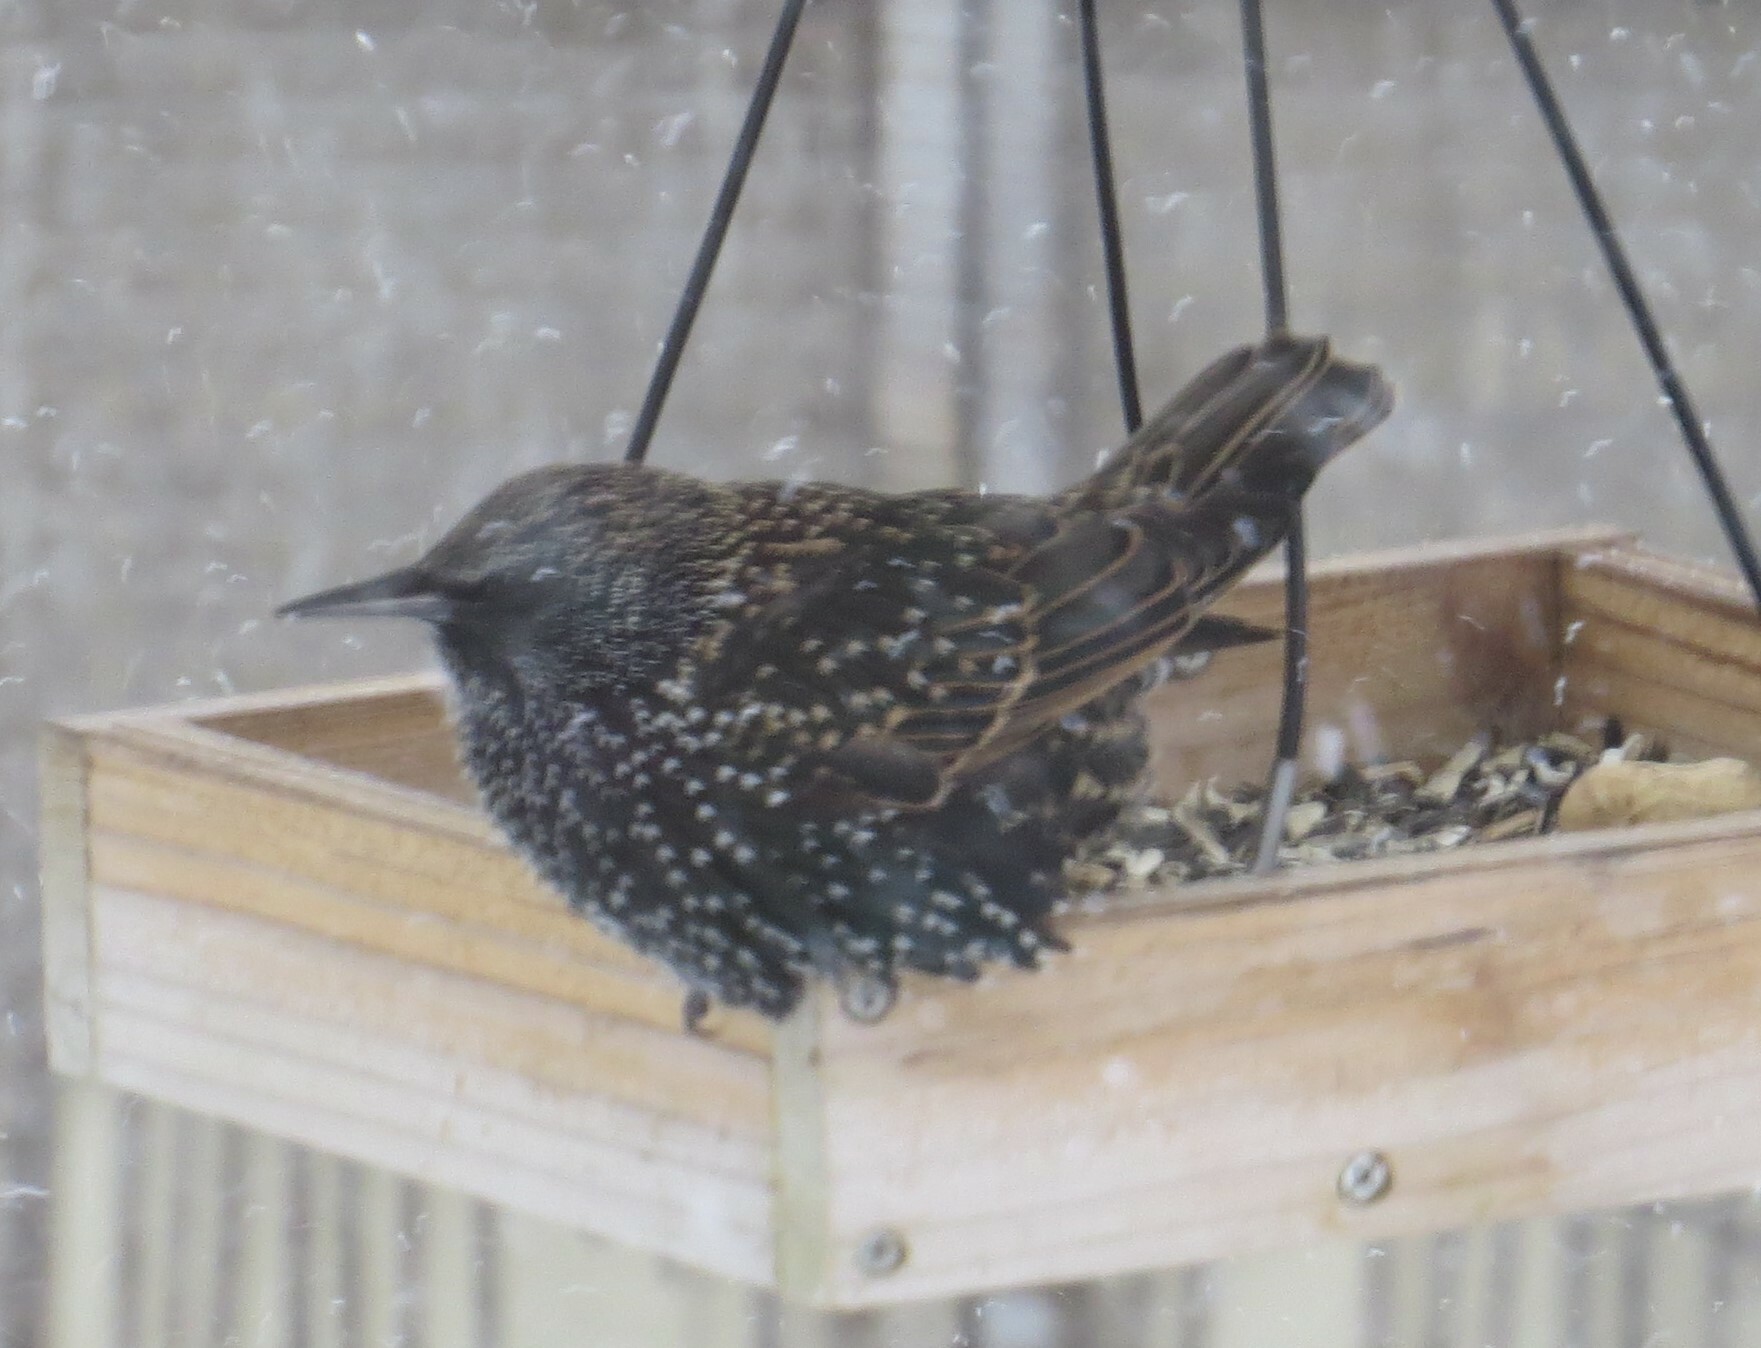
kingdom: Animalia
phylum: Chordata
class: Aves
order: Passeriformes
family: Sturnidae
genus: Sturnus
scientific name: Sturnus vulgaris
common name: Common starling
